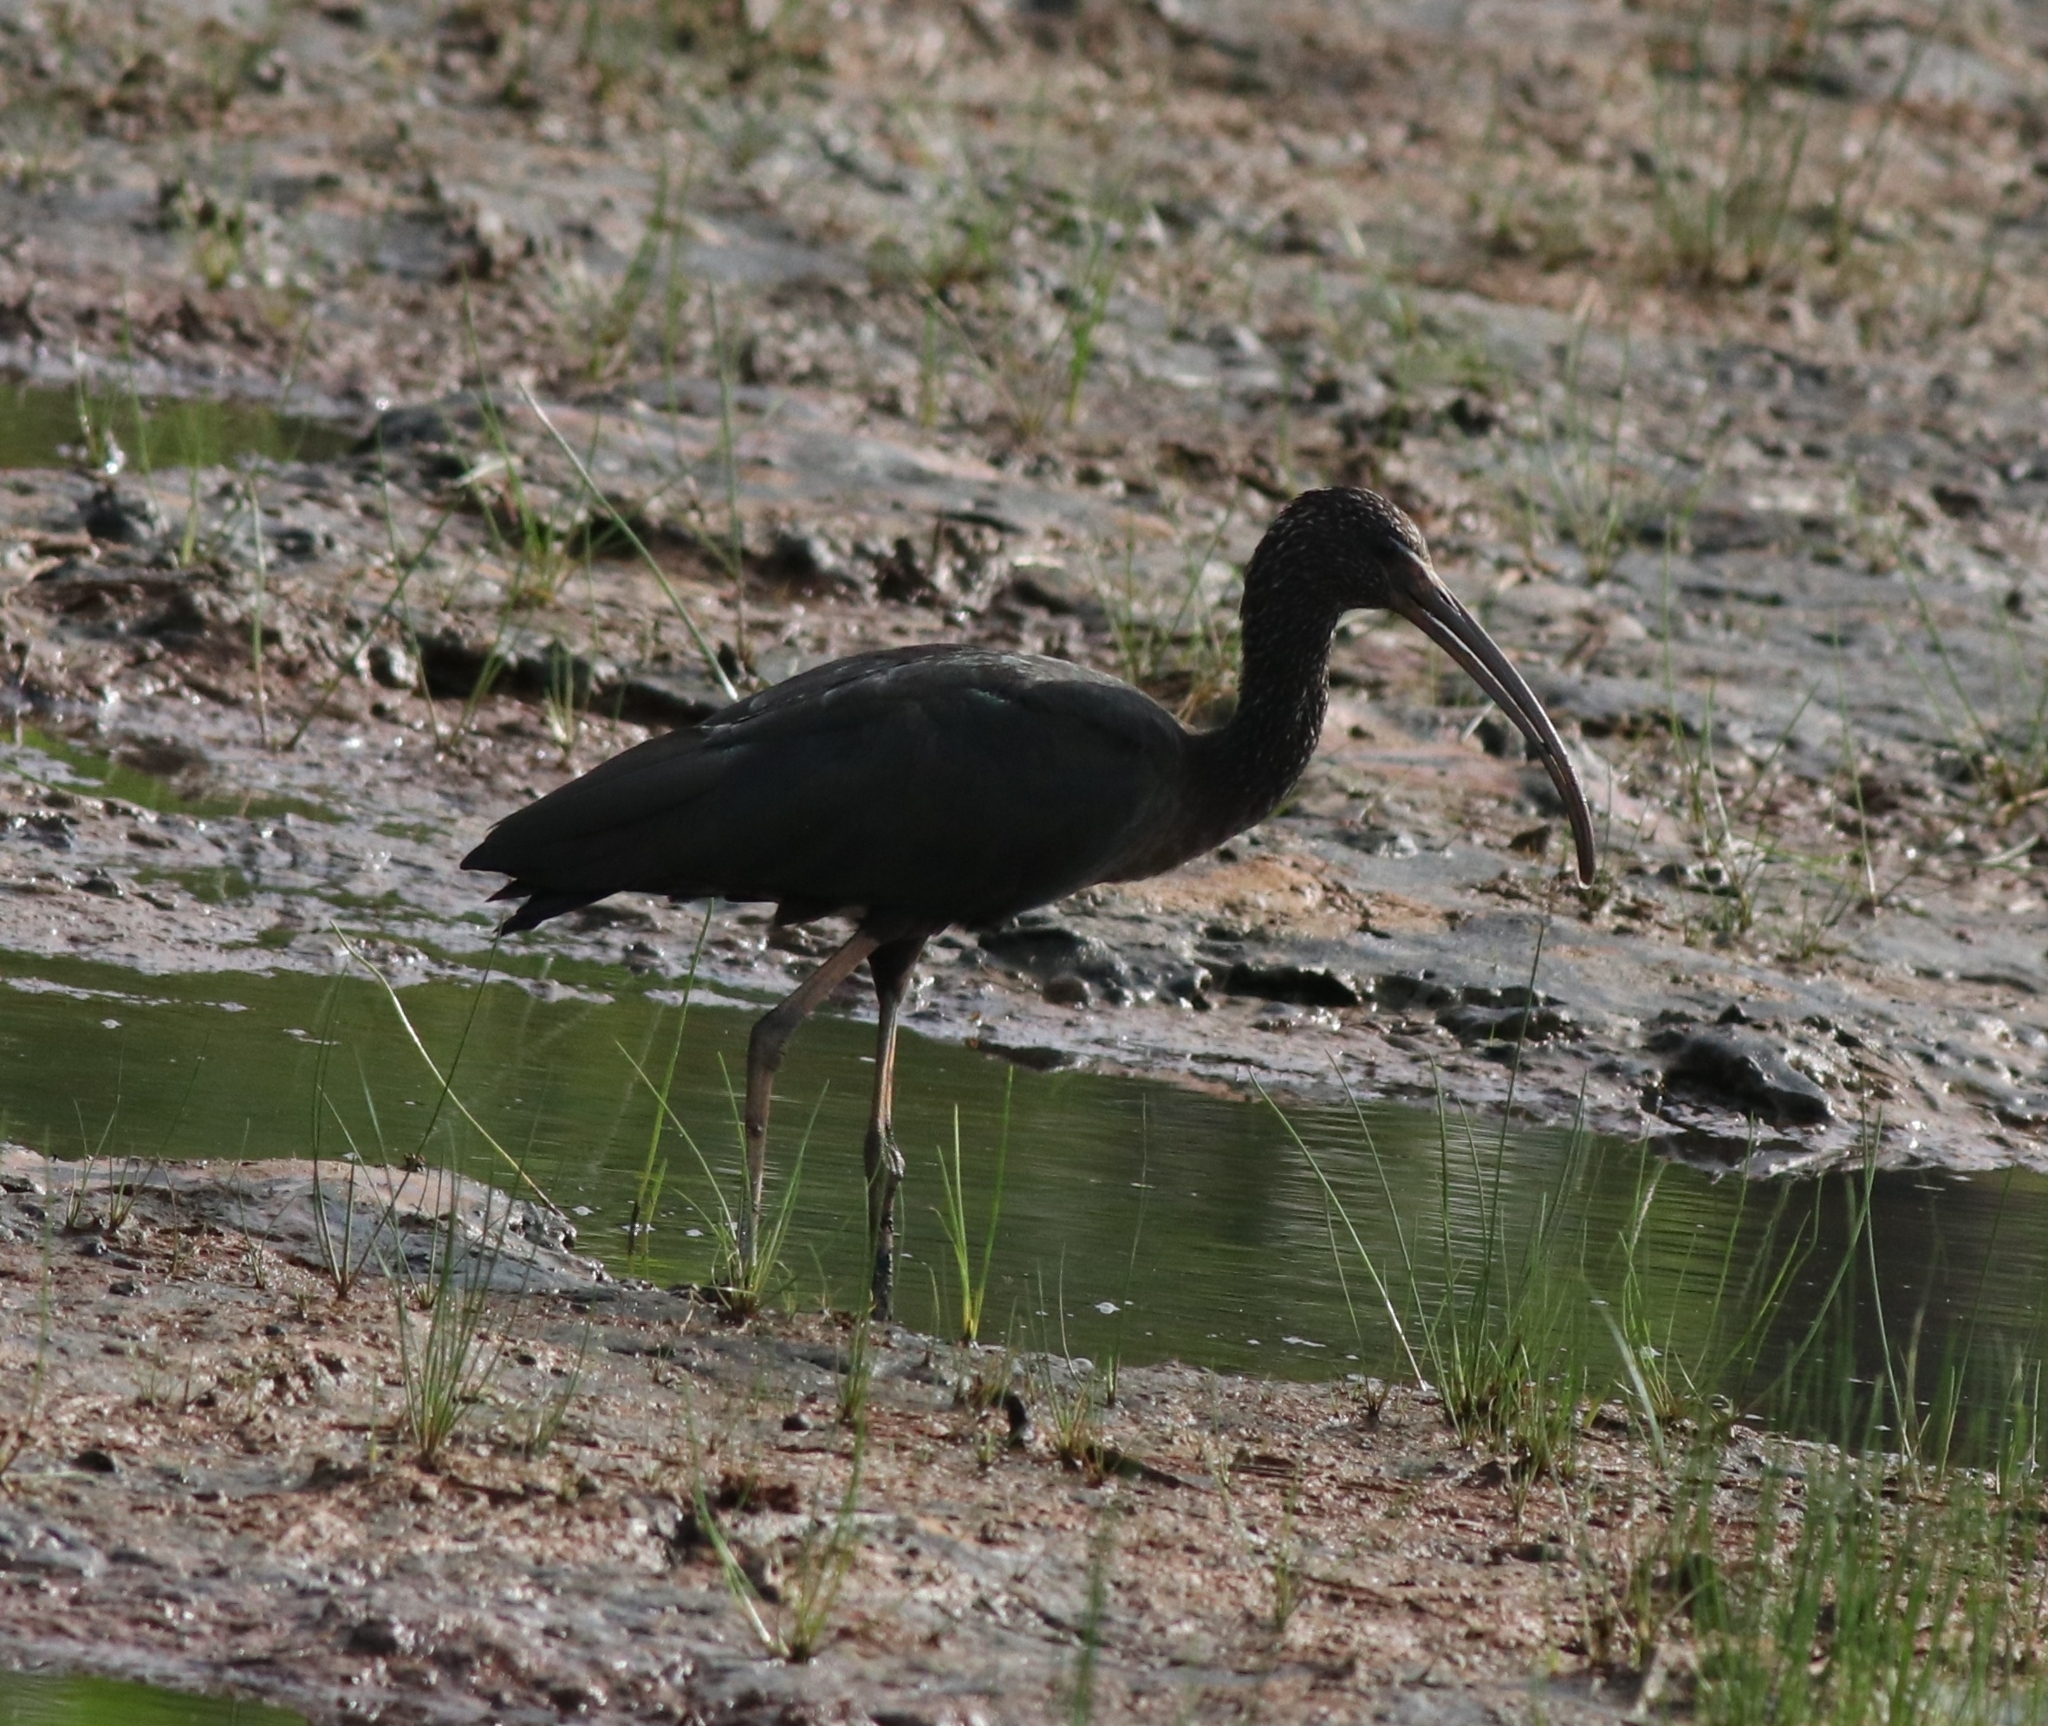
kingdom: Animalia
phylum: Chordata
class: Aves
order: Pelecaniformes
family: Threskiornithidae
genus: Plegadis
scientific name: Plegadis falcinellus
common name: Glossy ibis
